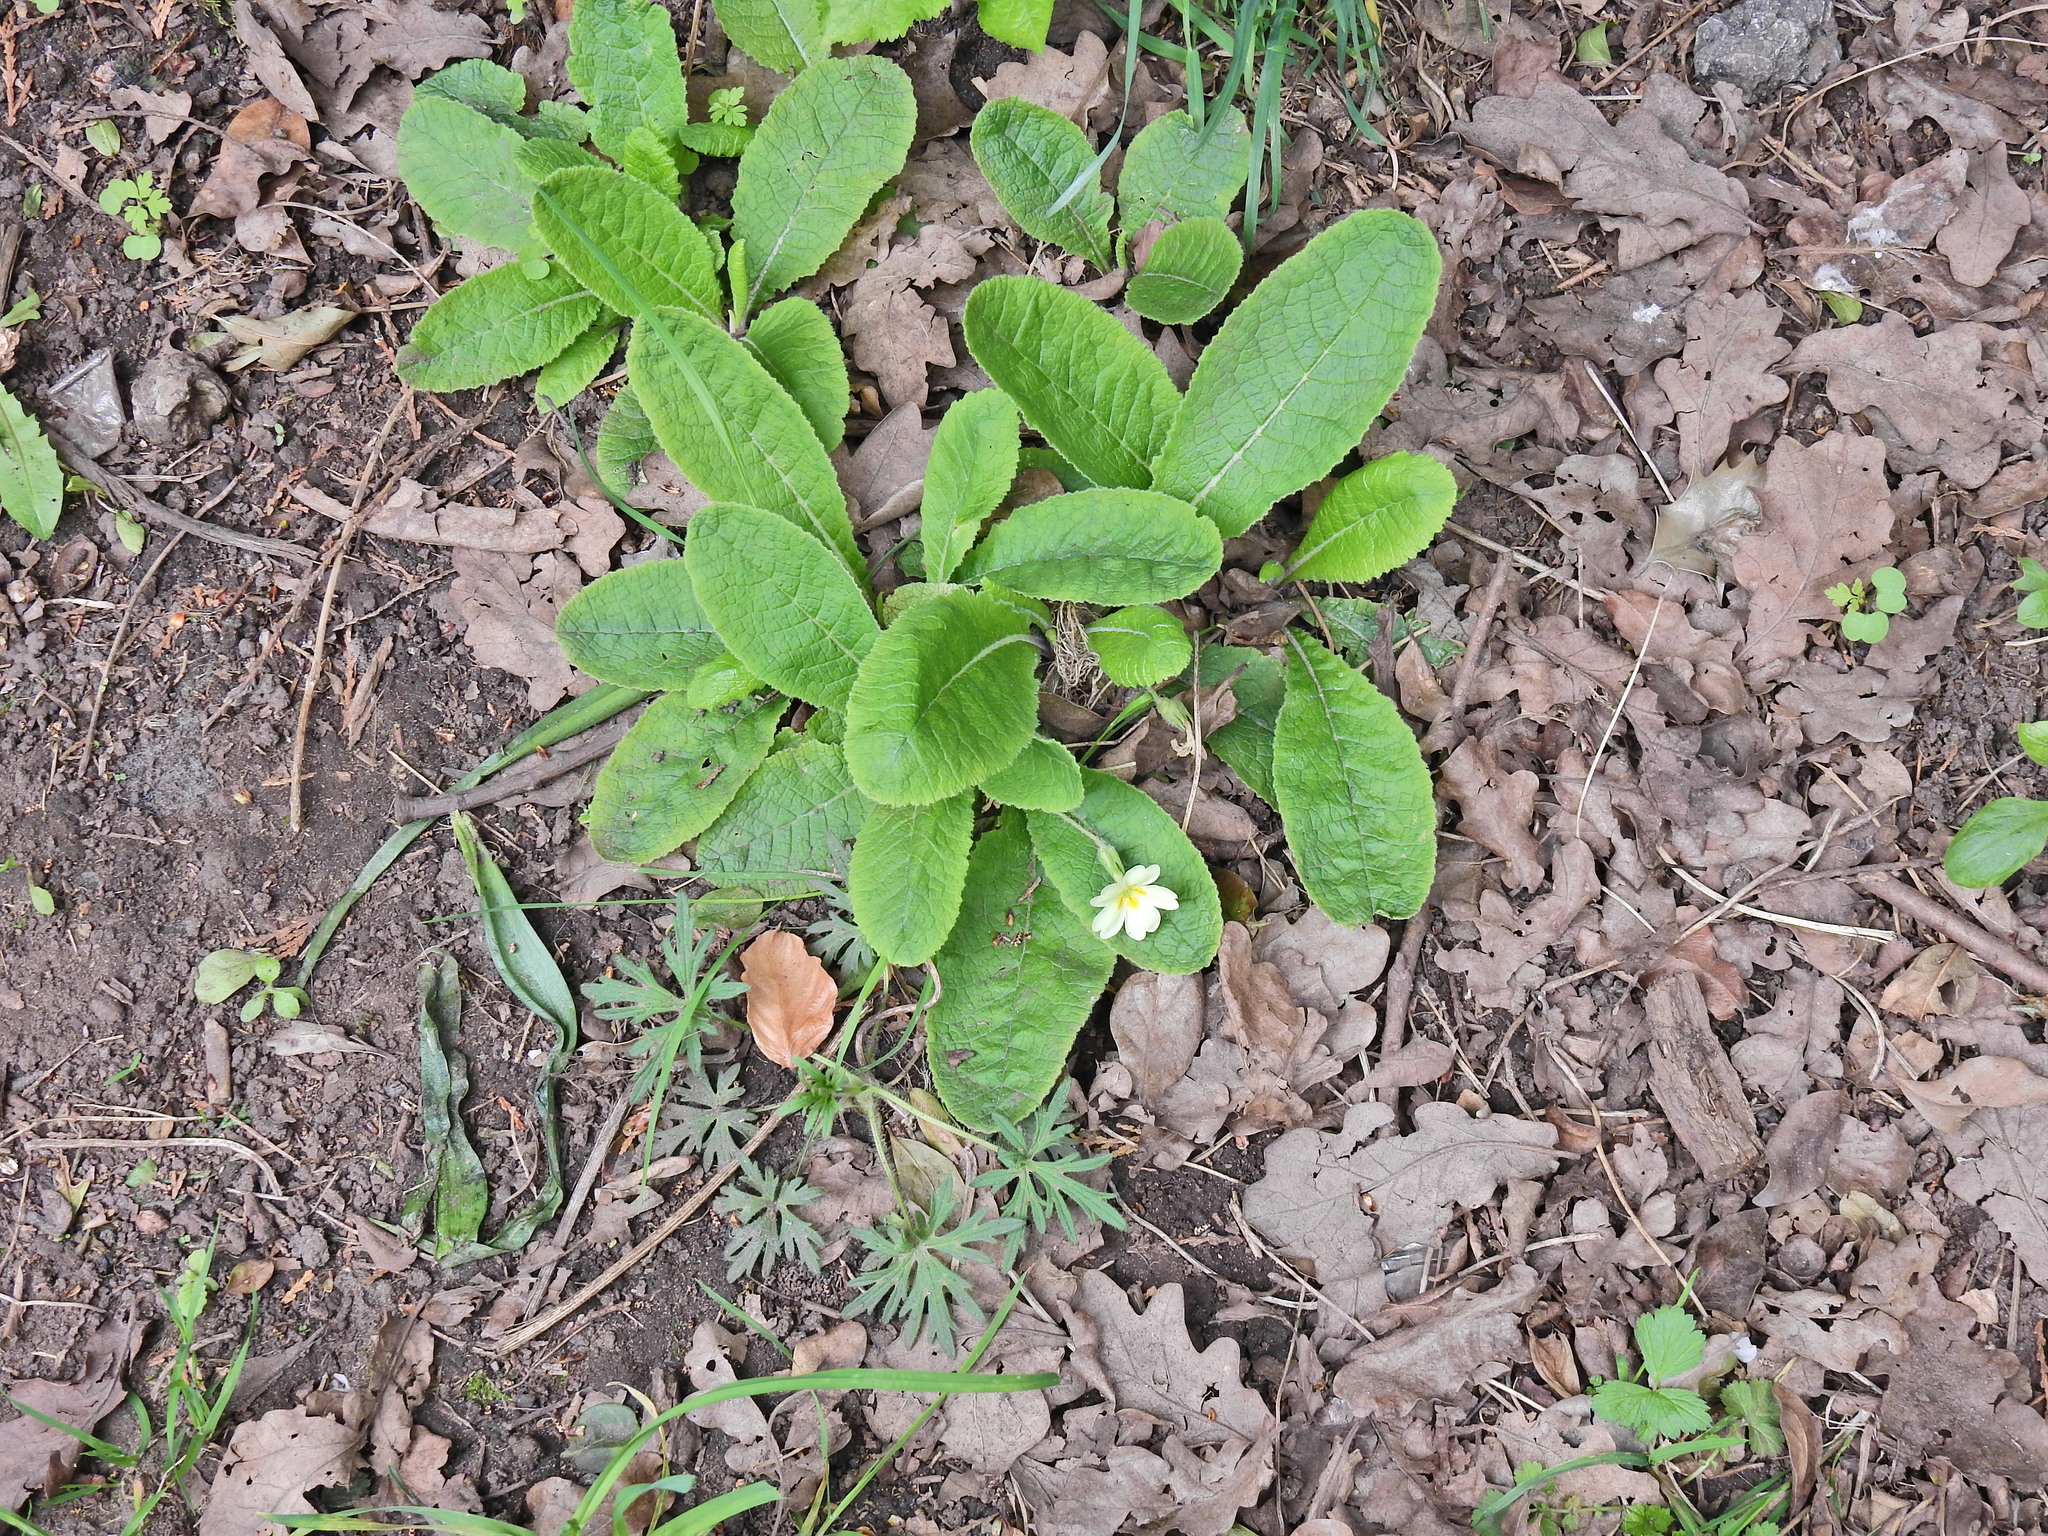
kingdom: Plantae
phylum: Tracheophyta
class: Magnoliopsida
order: Ericales
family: Primulaceae
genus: Primula
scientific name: Primula vulgaris
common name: Primrose
